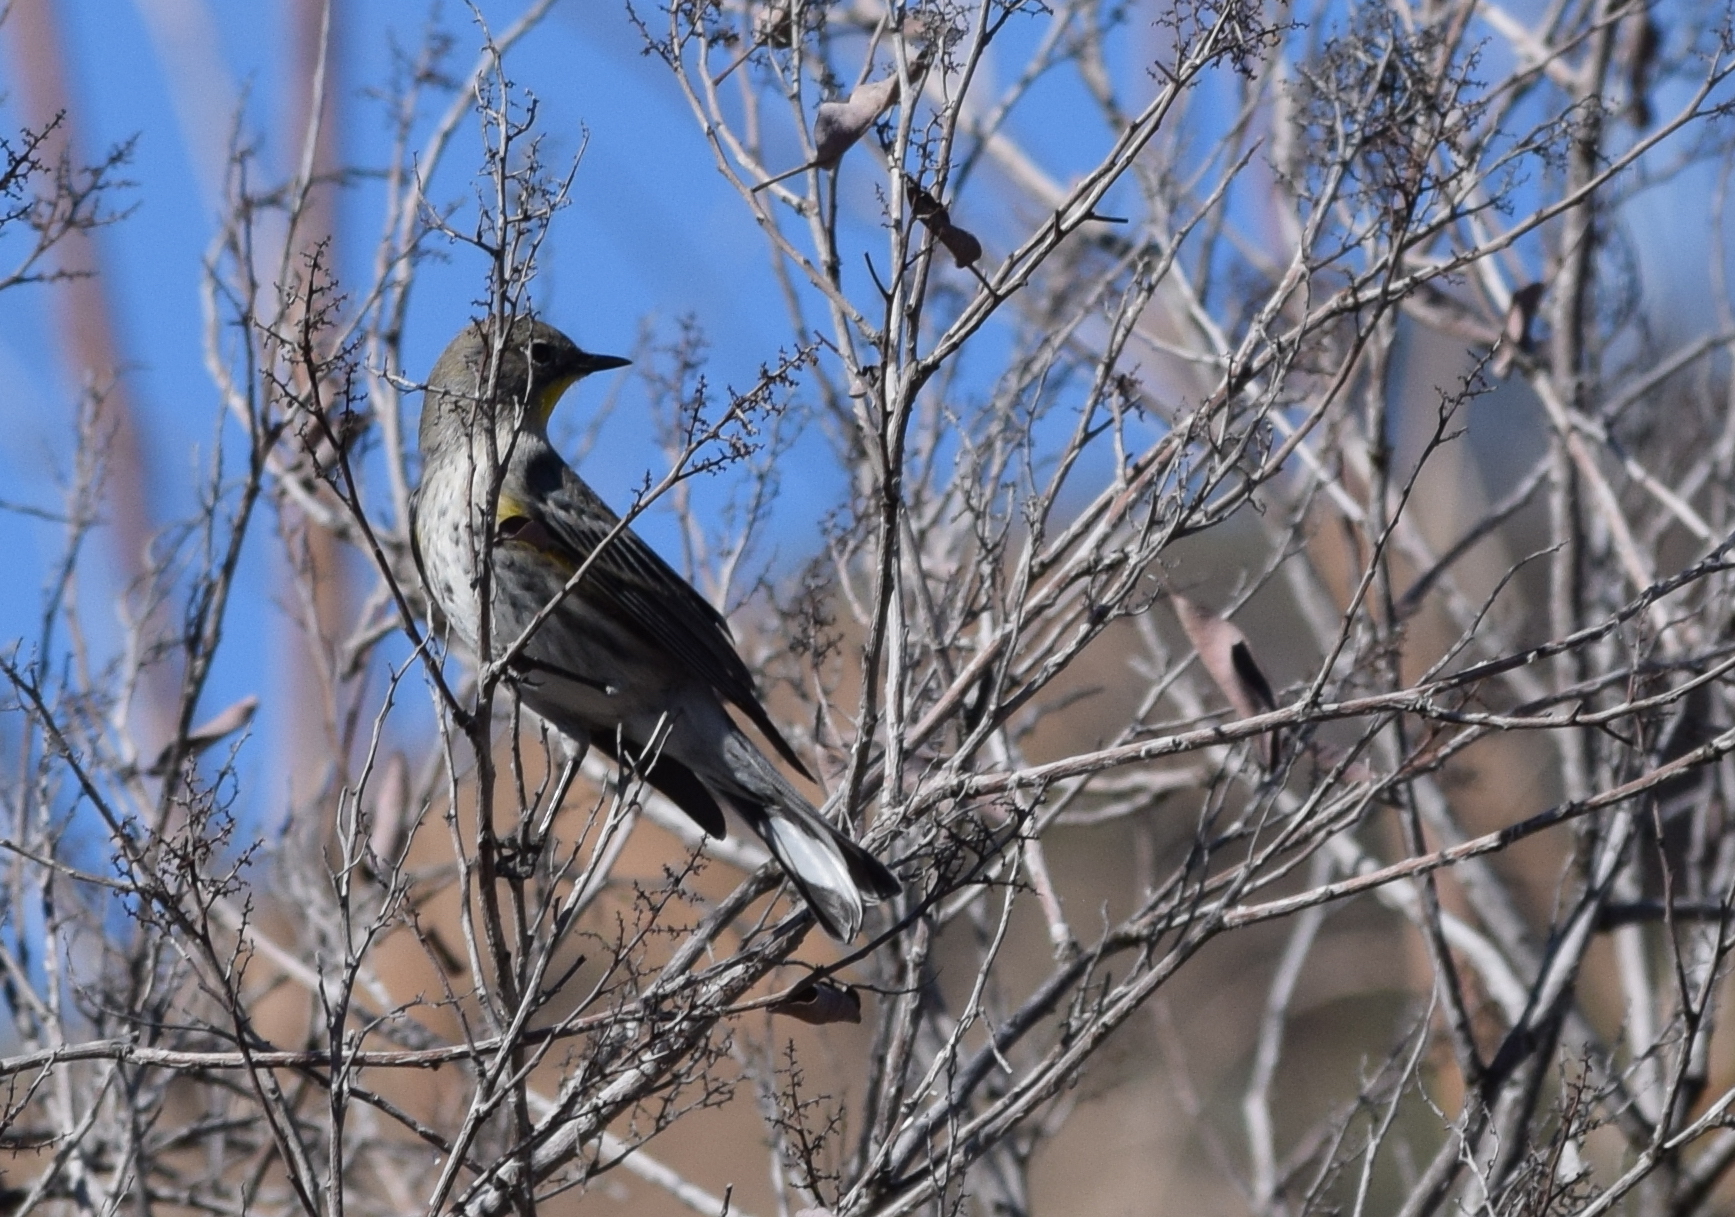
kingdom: Animalia
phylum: Chordata
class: Aves
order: Passeriformes
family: Parulidae
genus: Setophaga
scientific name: Setophaga coronata
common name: Myrtle warbler
